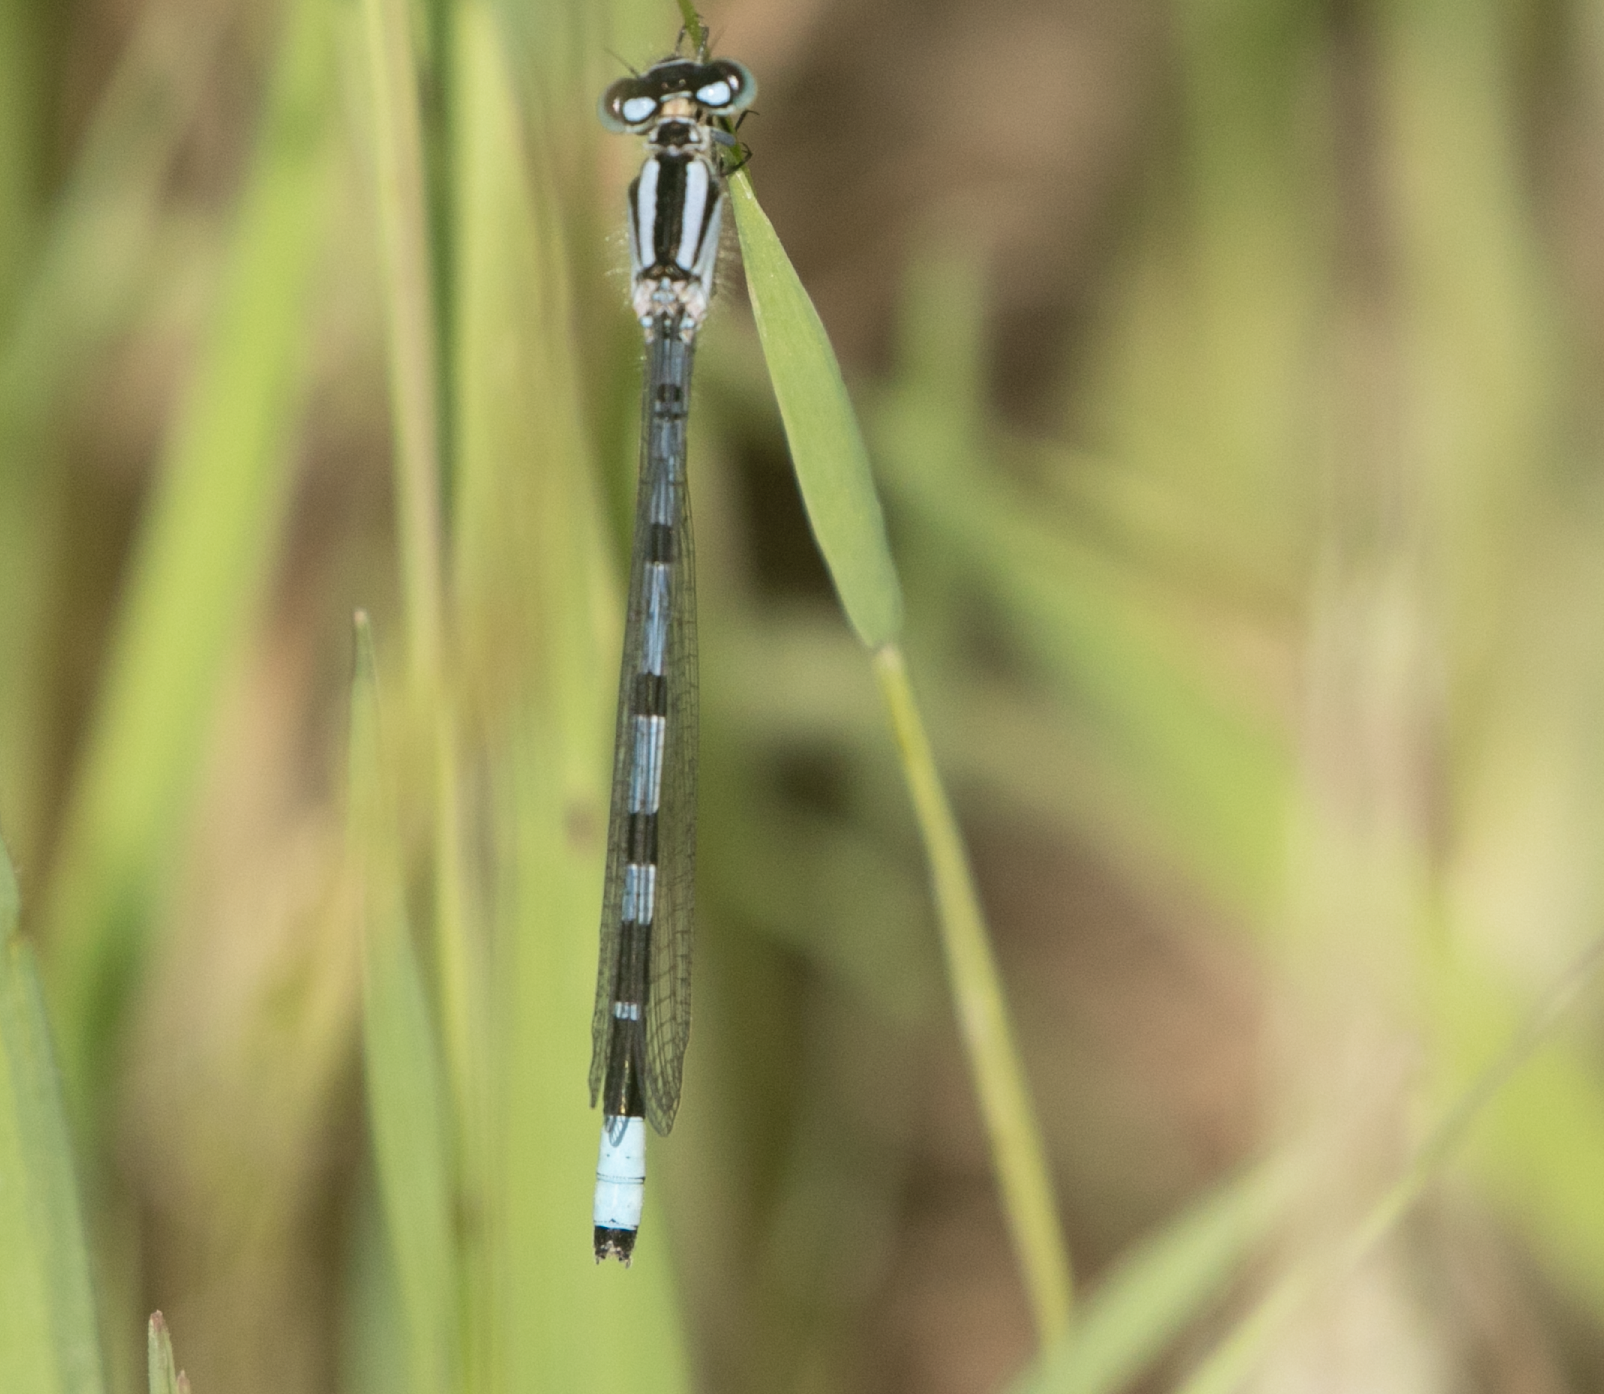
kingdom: Animalia
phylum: Arthropoda
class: Insecta
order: Odonata
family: Coenagrionidae
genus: Enallagma
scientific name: Enallagma cyathigerum
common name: Common blue damselfly
